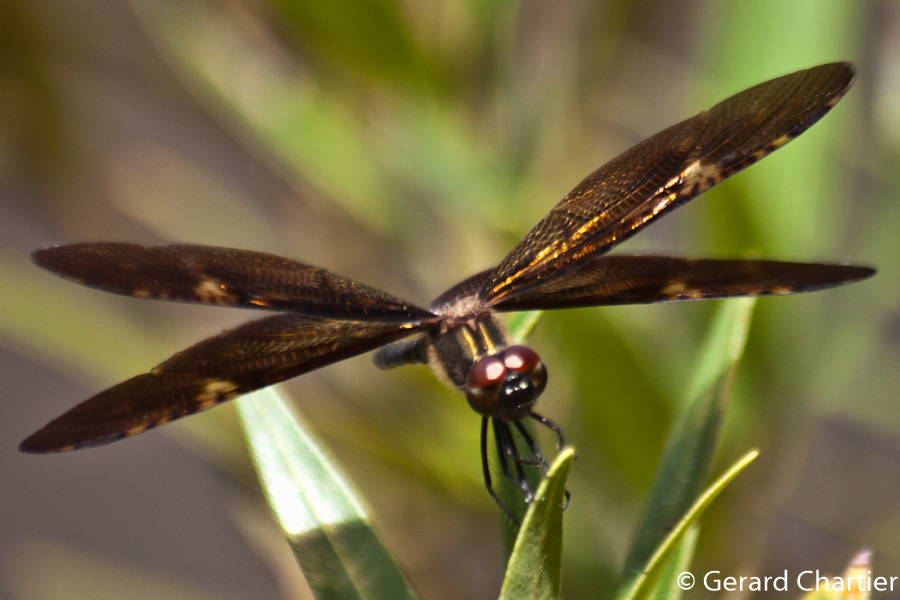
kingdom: Animalia
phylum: Arthropoda
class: Insecta
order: Odonata
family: Libellulidae
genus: Rhyothemis
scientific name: Rhyothemis obsolescens
